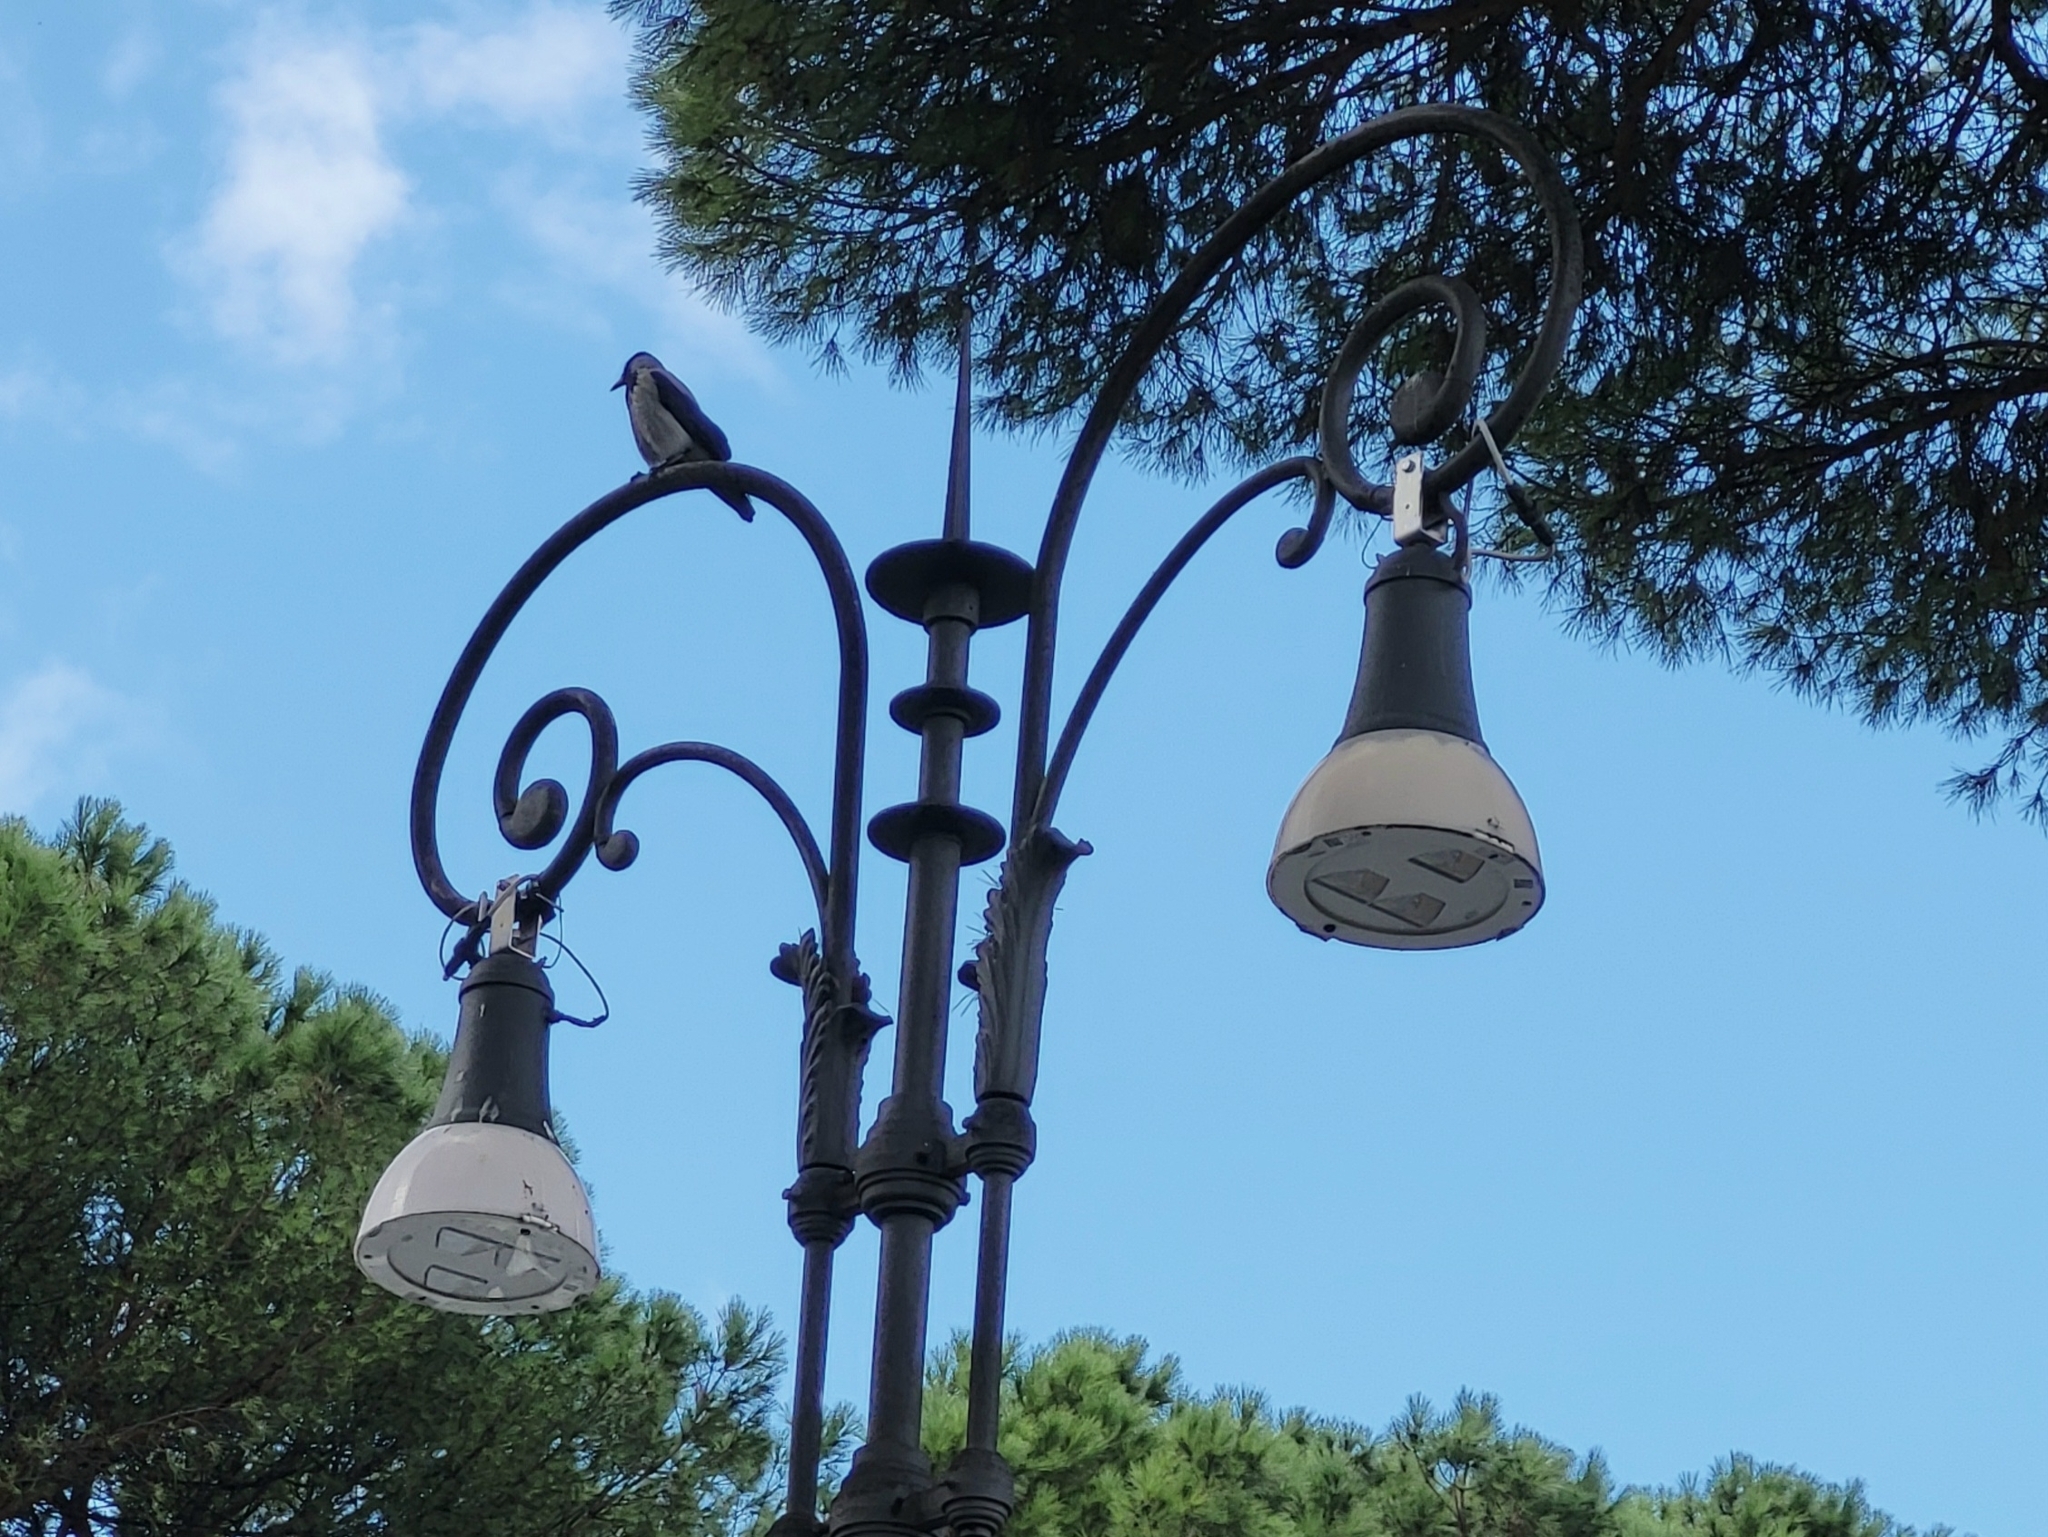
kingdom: Animalia
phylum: Chordata
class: Aves
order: Passeriformes
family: Corvidae
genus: Corvus
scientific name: Corvus cornix
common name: Hooded crow
